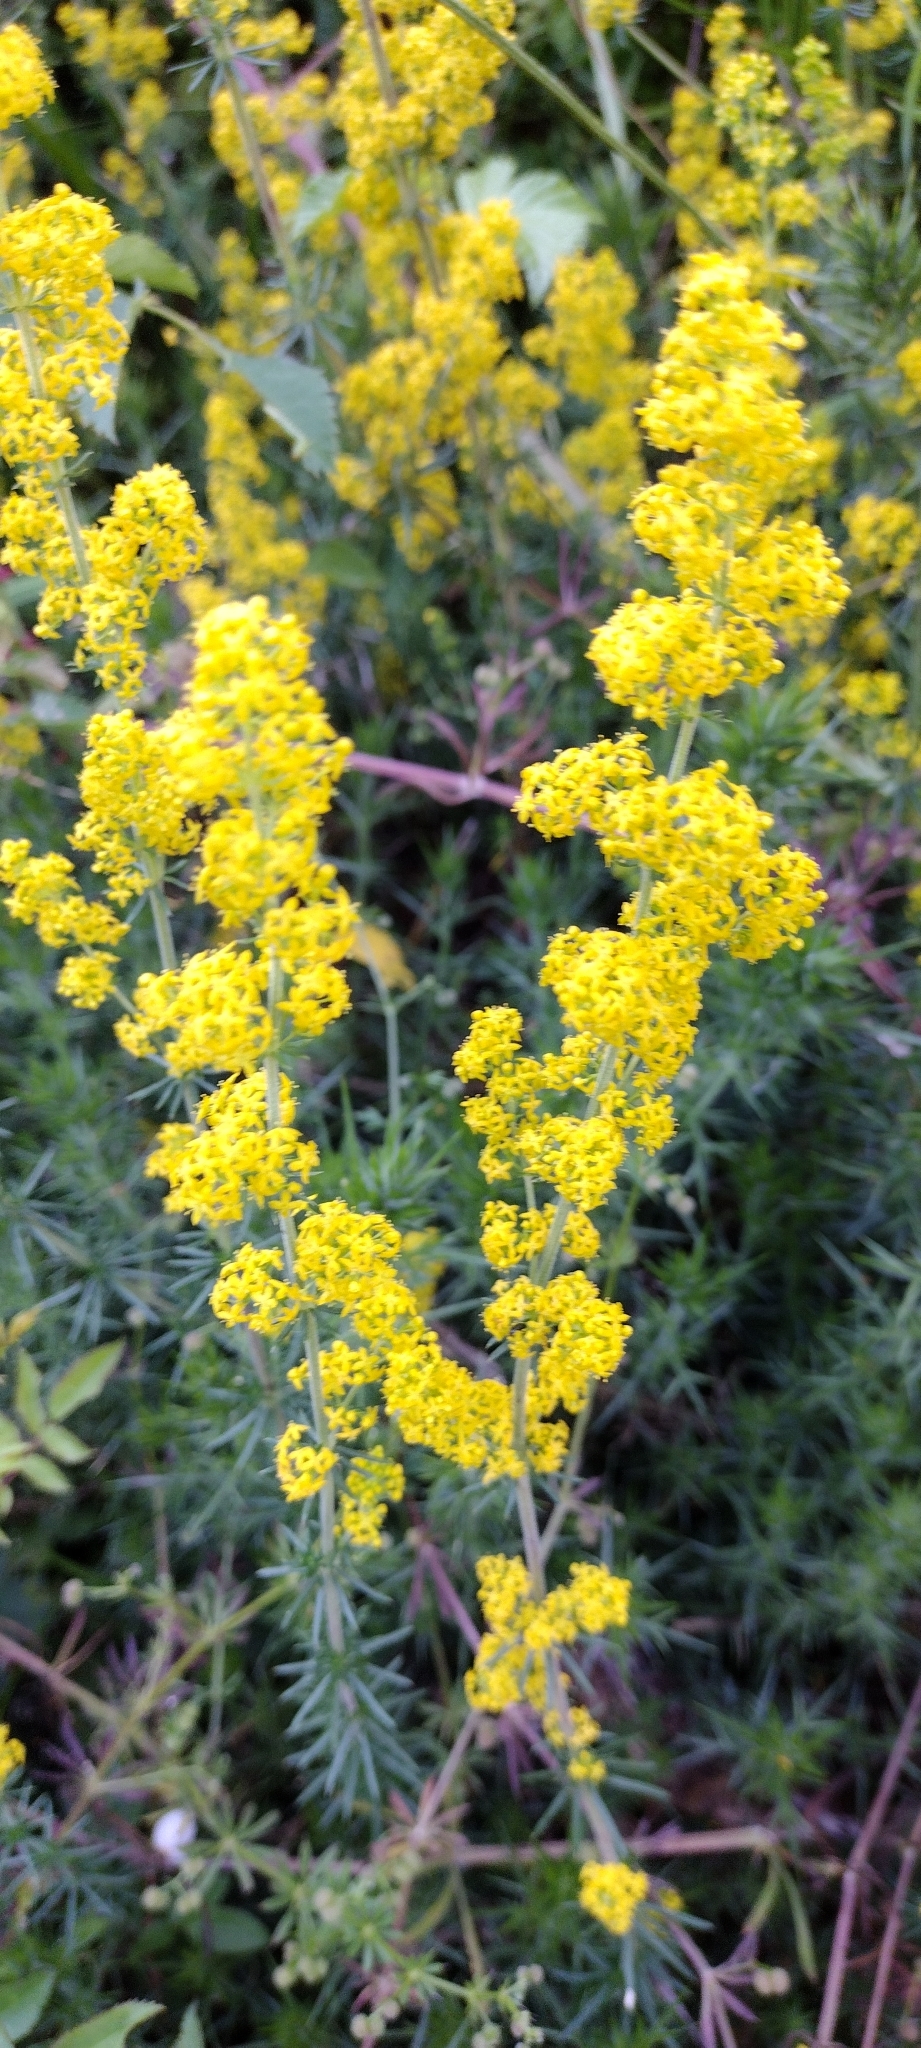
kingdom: Plantae
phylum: Tracheophyta
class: Magnoliopsida
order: Gentianales
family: Rubiaceae
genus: Galium
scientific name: Galium verum
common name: Lady's bedstraw
